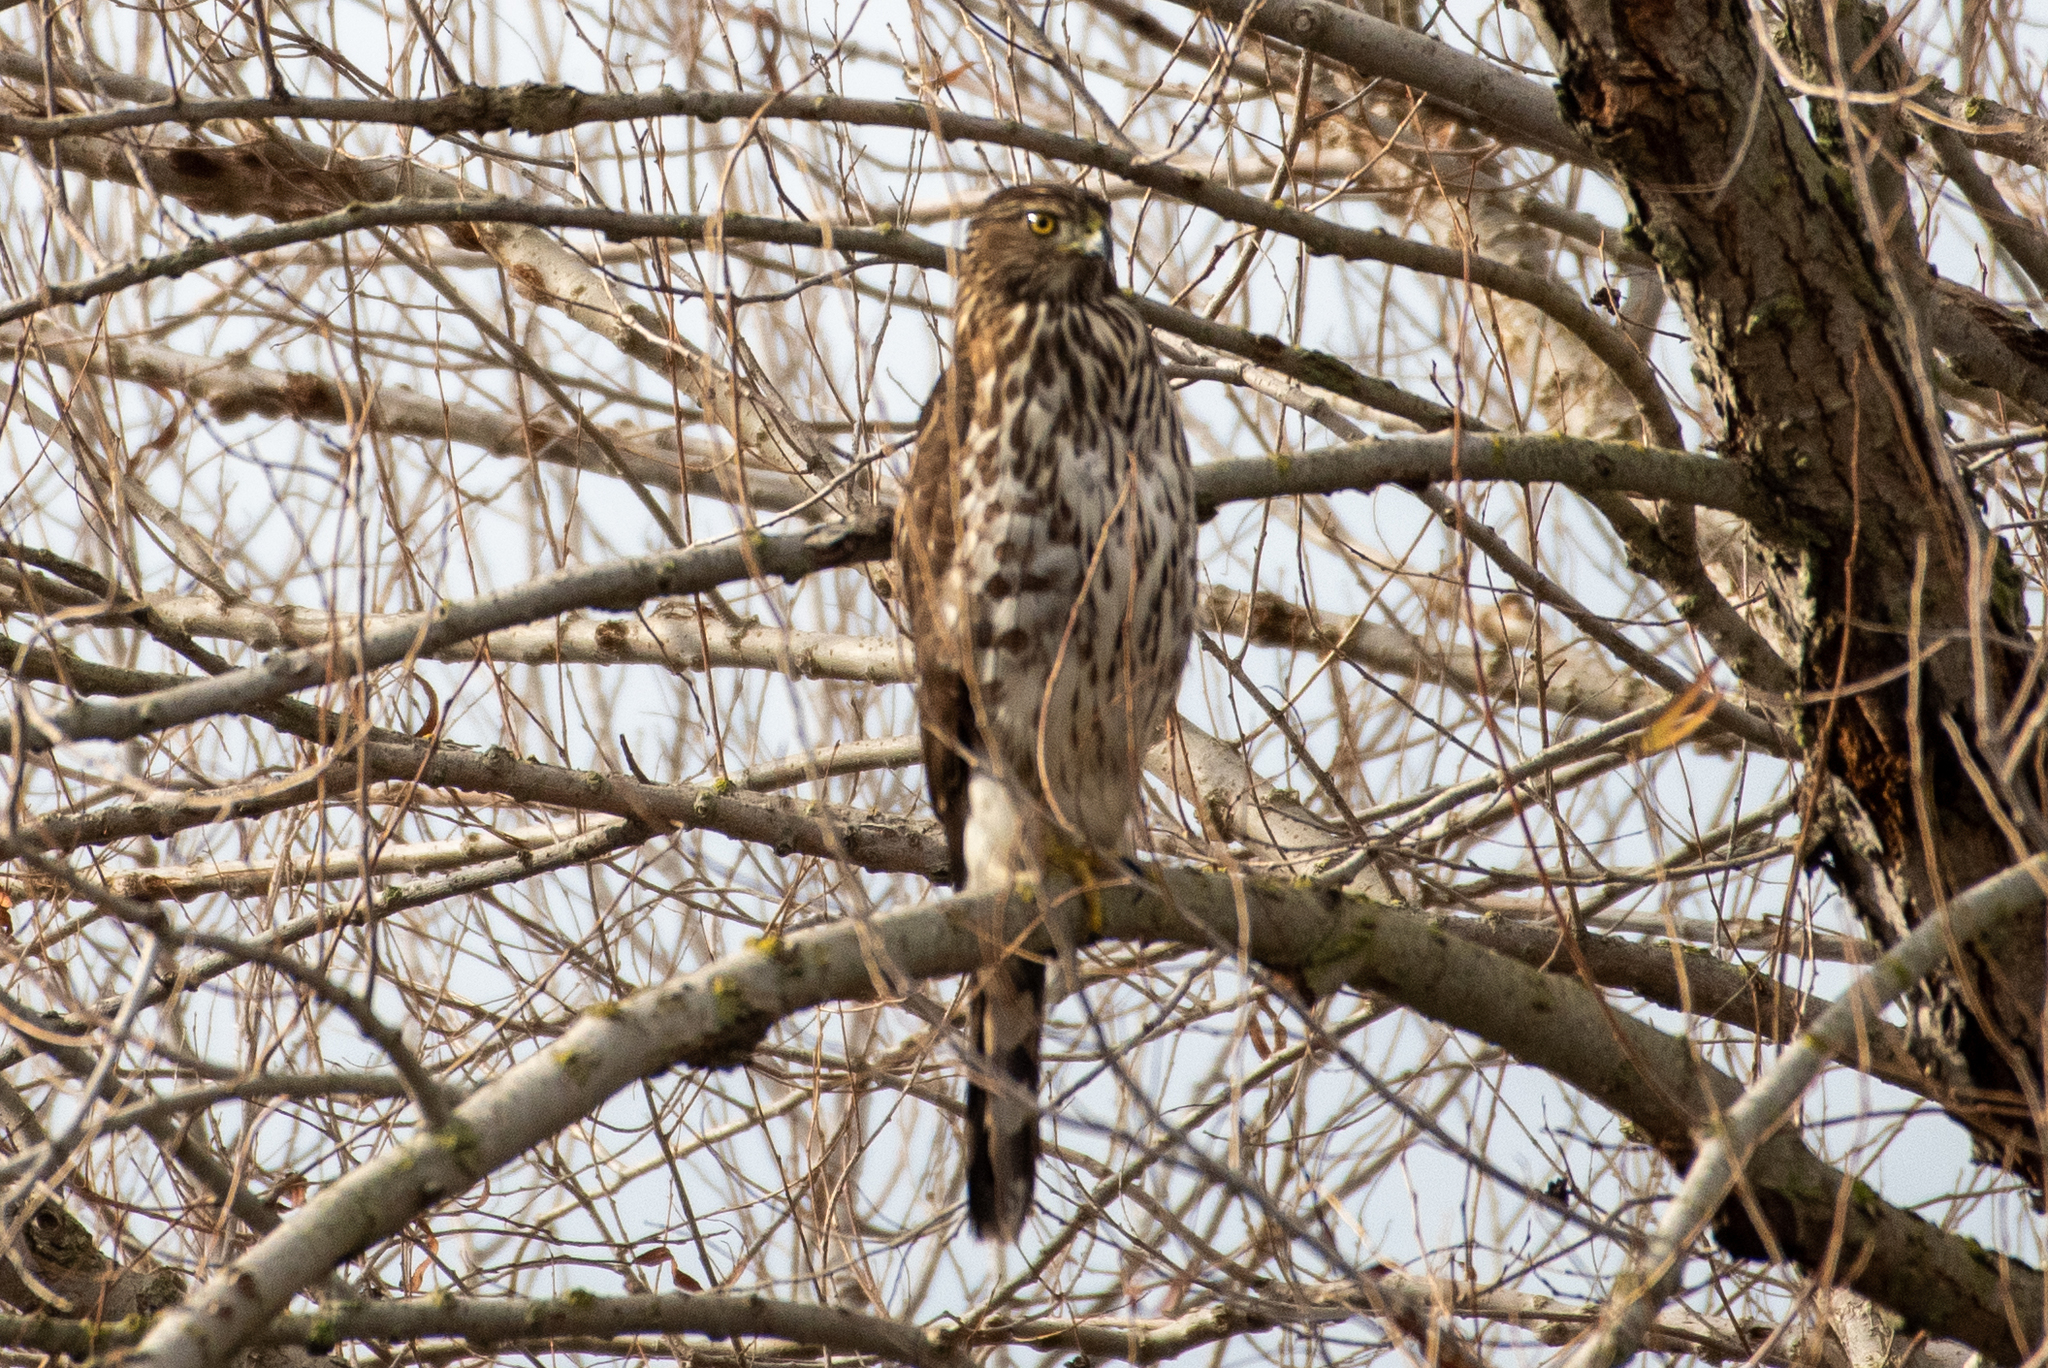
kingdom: Animalia
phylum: Chordata
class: Aves
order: Accipitriformes
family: Accipitridae
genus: Accipiter
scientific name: Accipiter cooperii
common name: Cooper's hawk
